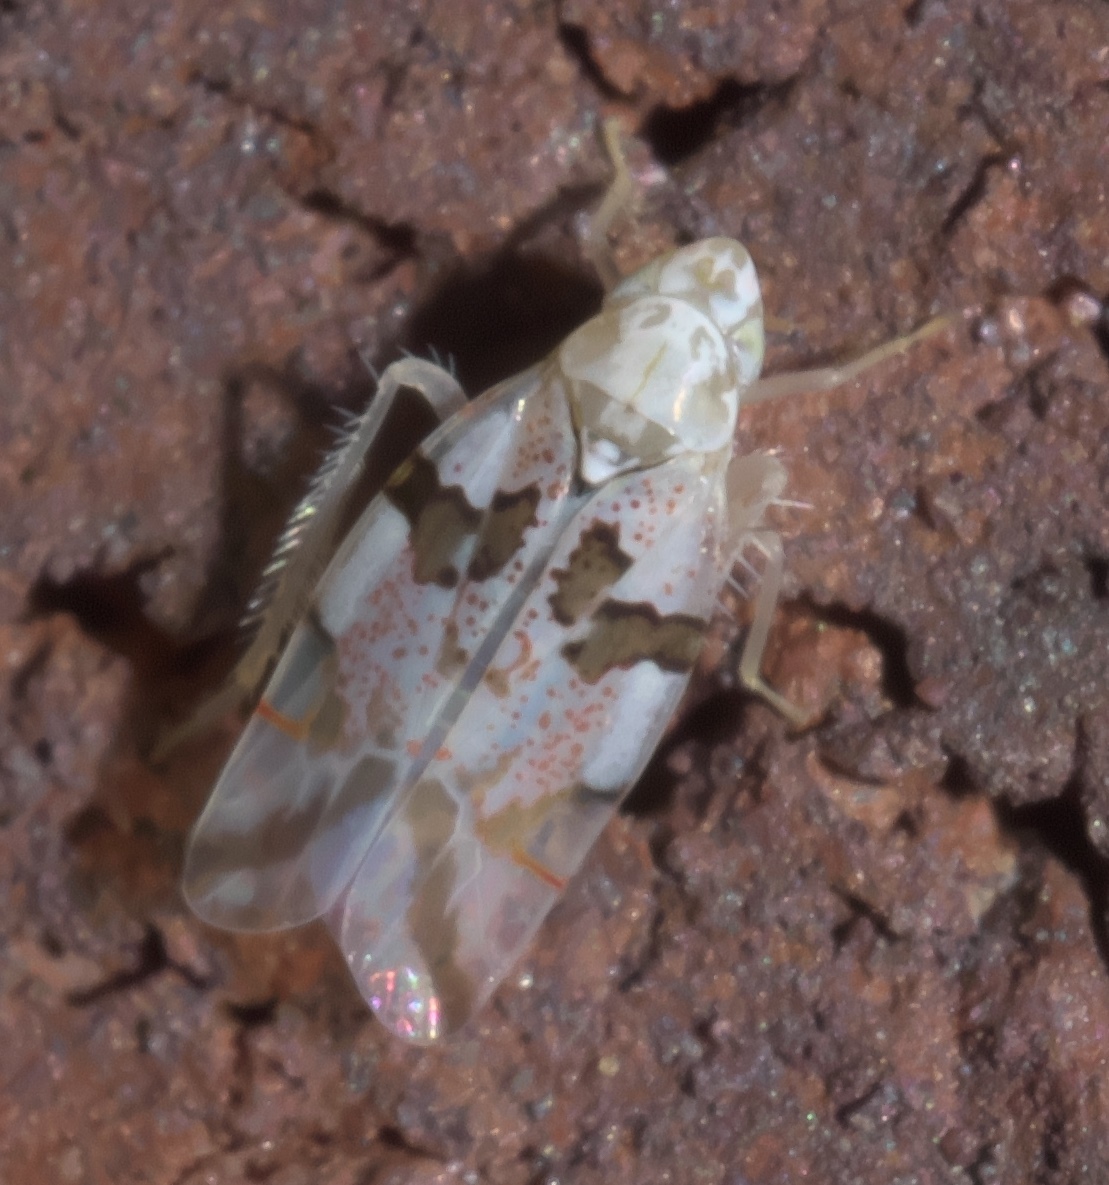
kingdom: Animalia
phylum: Arthropoda
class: Insecta
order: Hemiptera
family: Cicadellidae
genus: Hymetta
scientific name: Hymetta trifasciata
